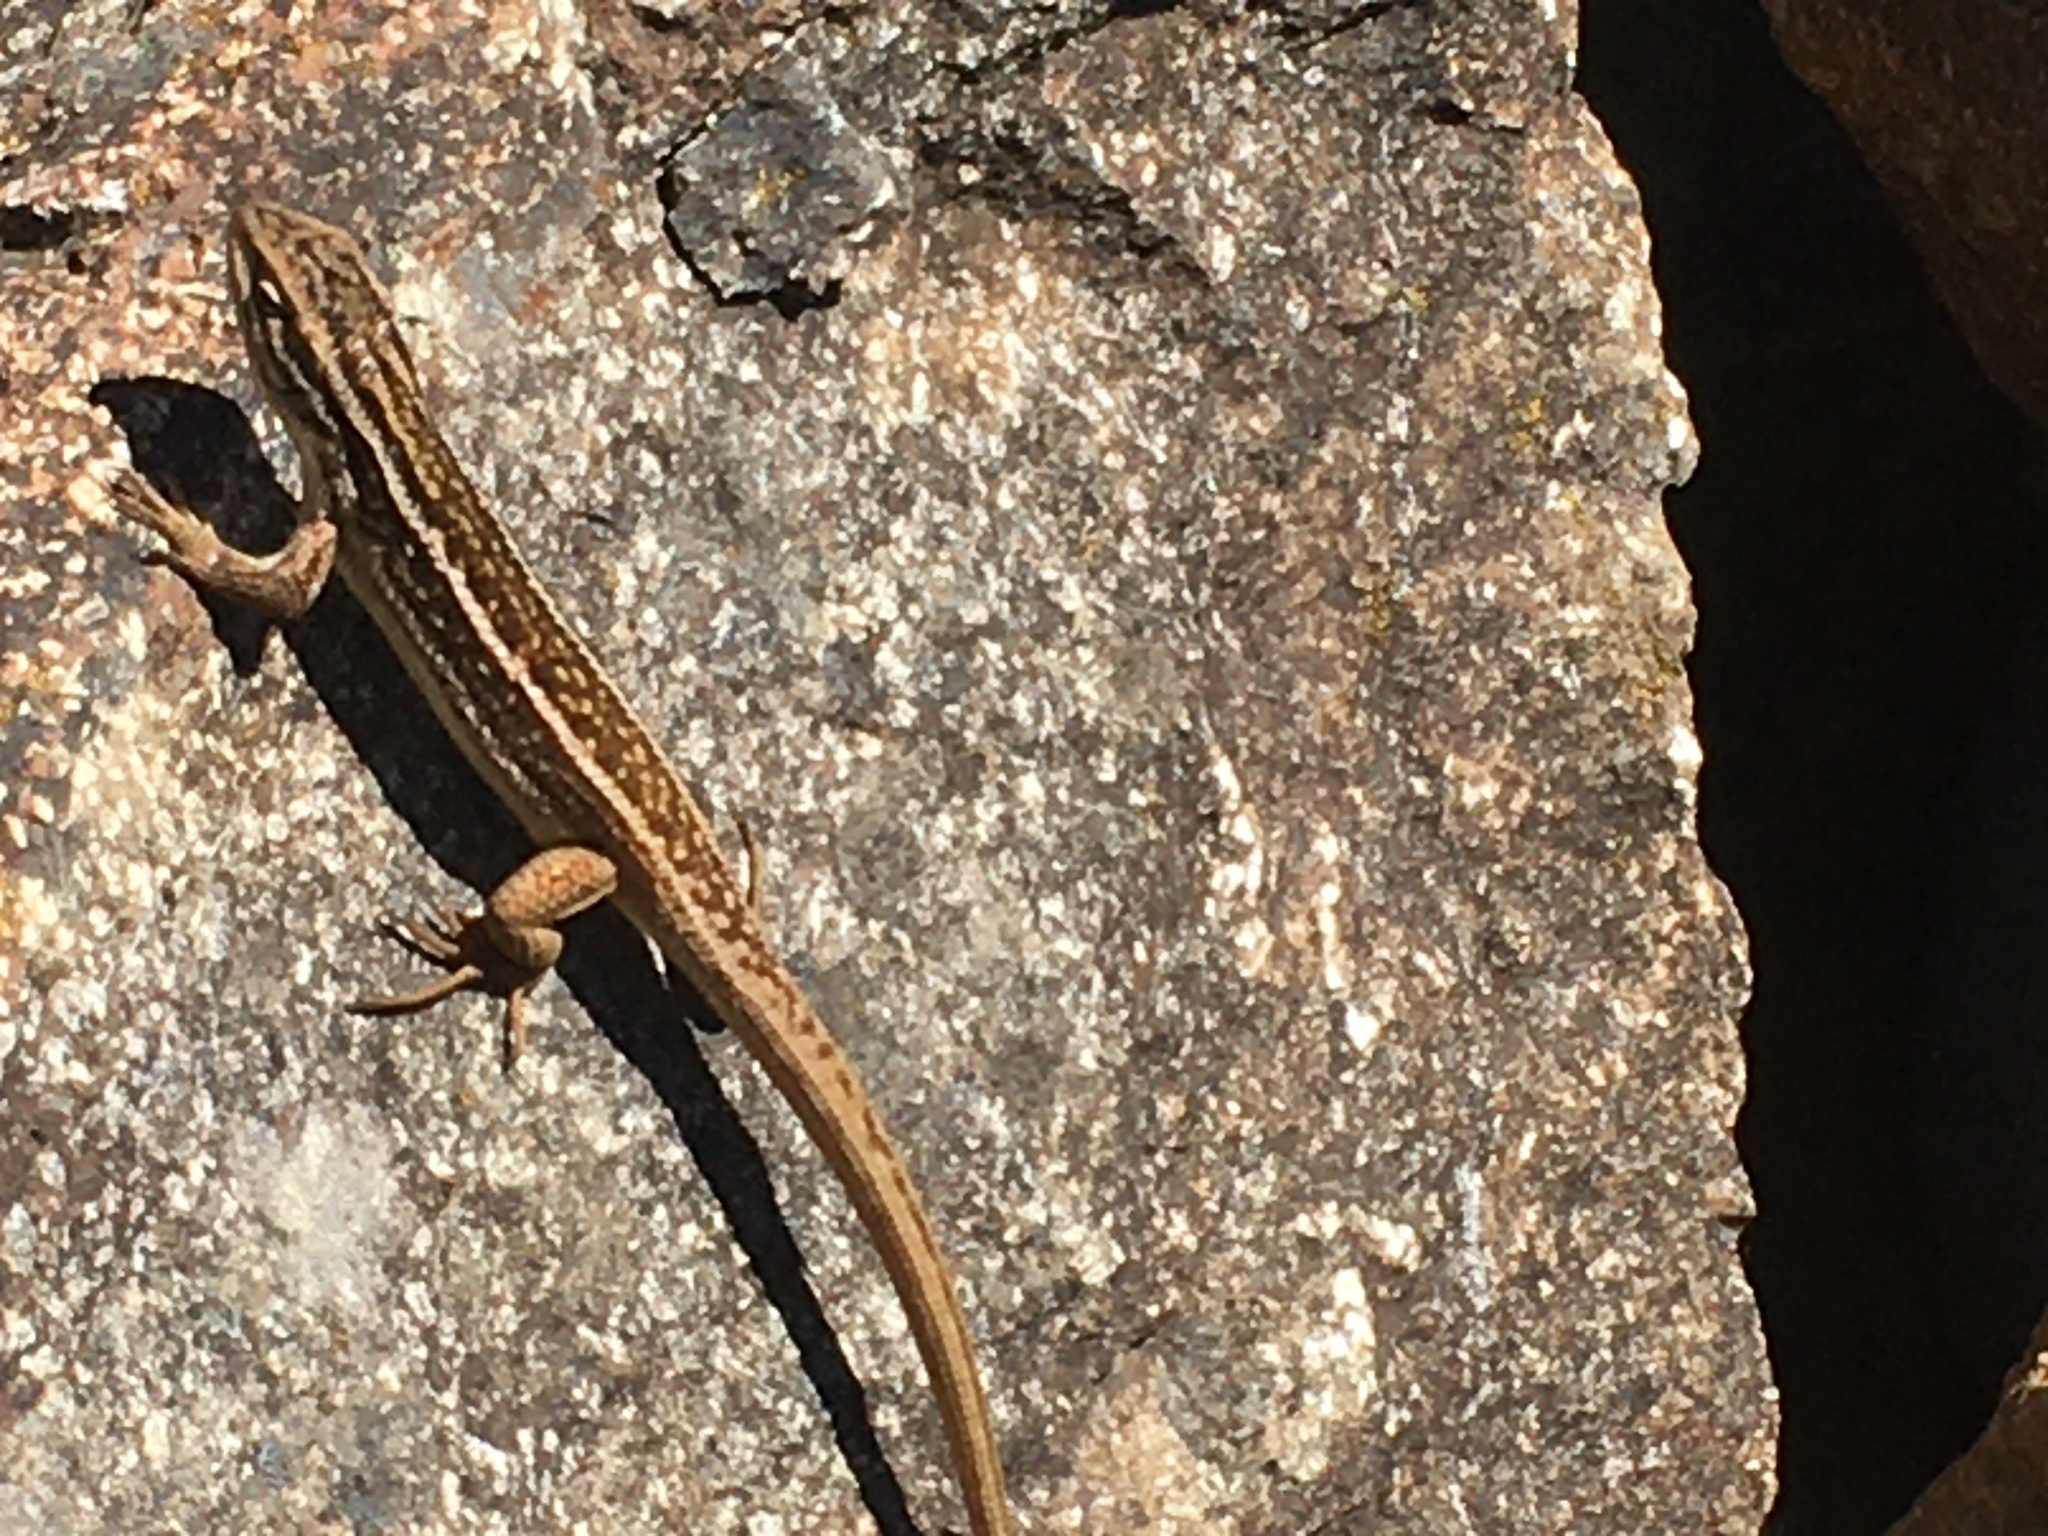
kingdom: Animalia
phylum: Chordata
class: Squamata
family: Liolaemidae
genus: Liolaemus
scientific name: Liolaemus chiliensis
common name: Chilean tree iguana
